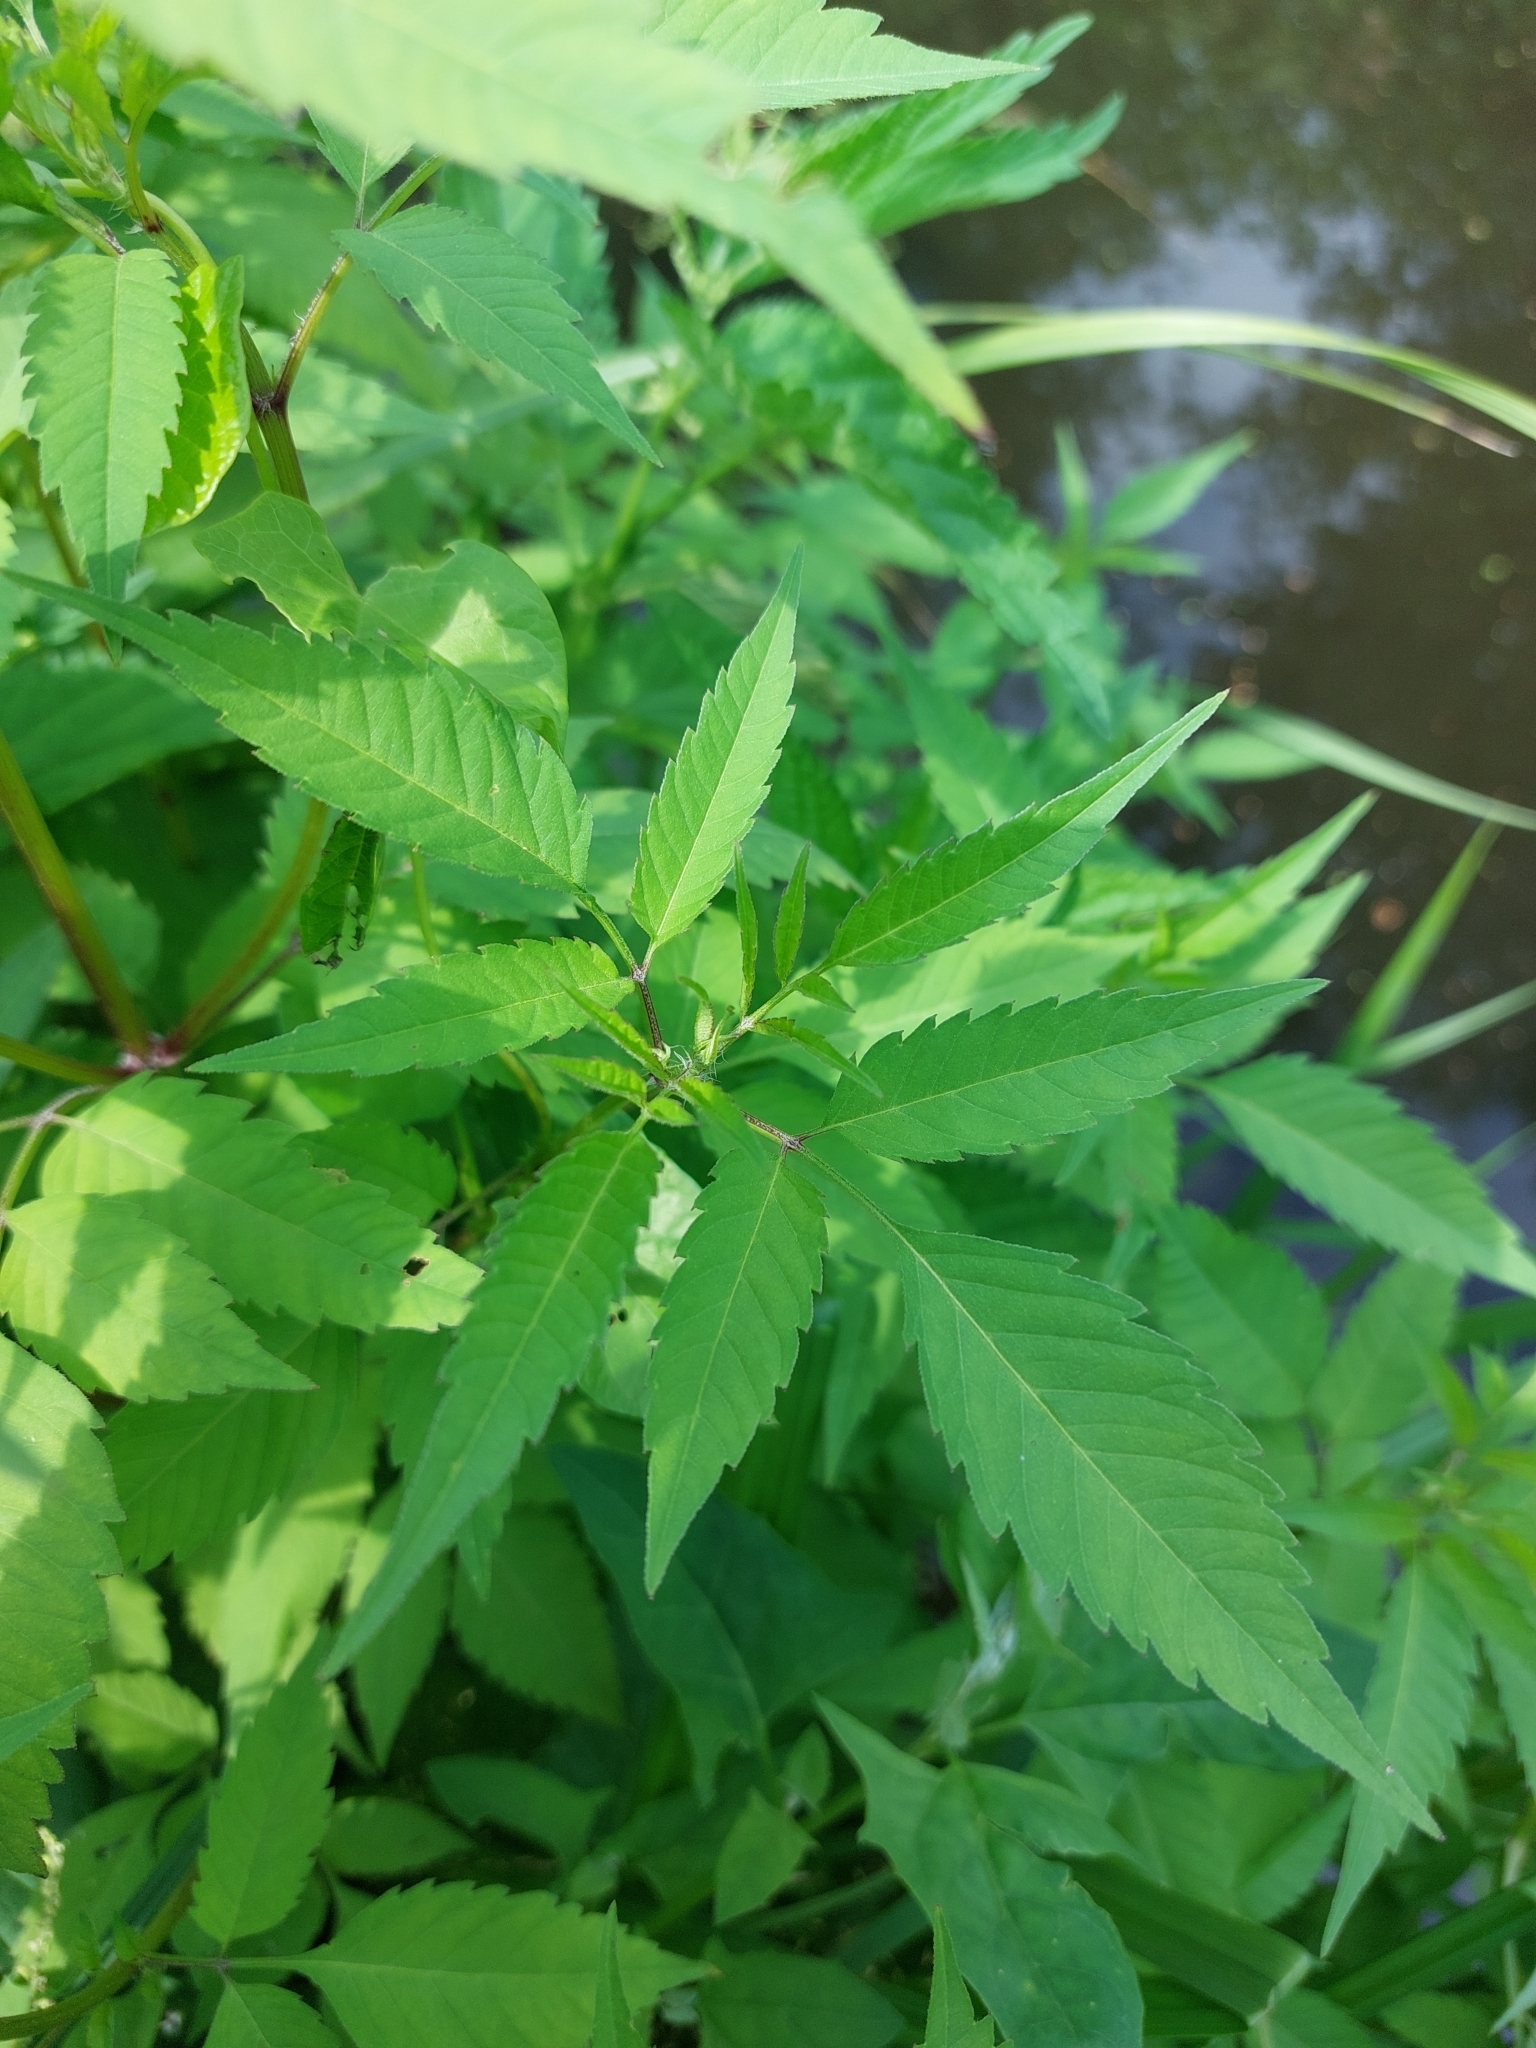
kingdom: Plantae
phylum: Tracheophyta
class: Magnoliopsida
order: Asterales
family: Asteraceae
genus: Bidens
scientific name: Bidens frondosa
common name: Beggarticks
